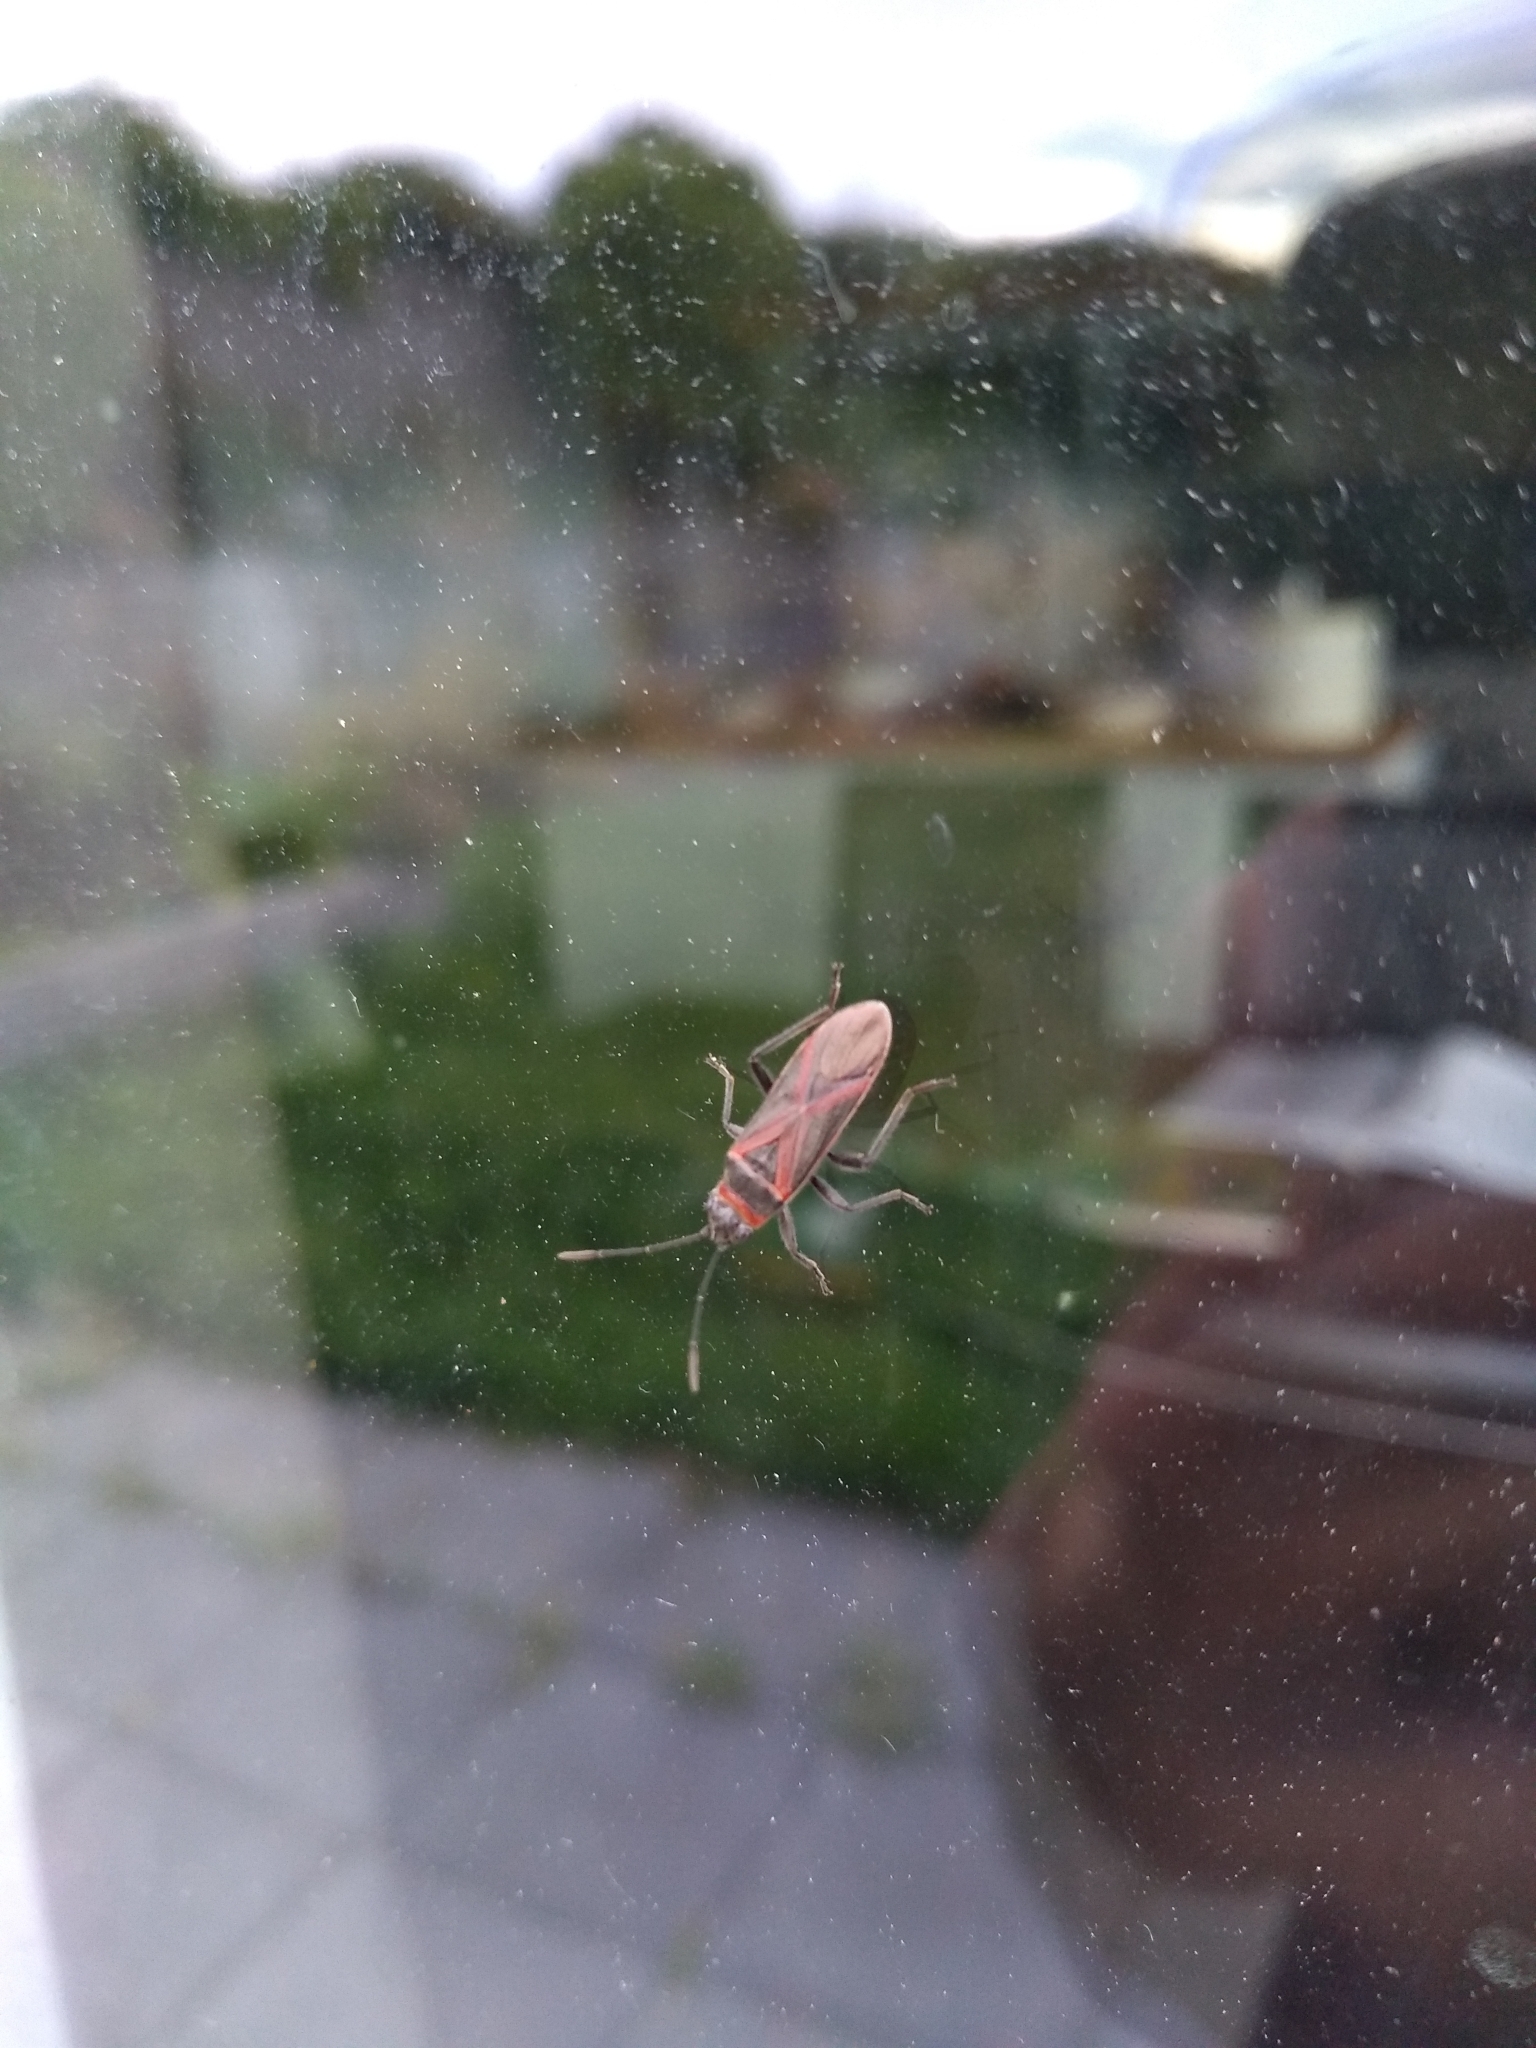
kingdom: Animalia
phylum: Arthropoda
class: Insecta
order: Hemiptera
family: Lygaeidae
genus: Arocatus
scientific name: Arocatus rusticus
